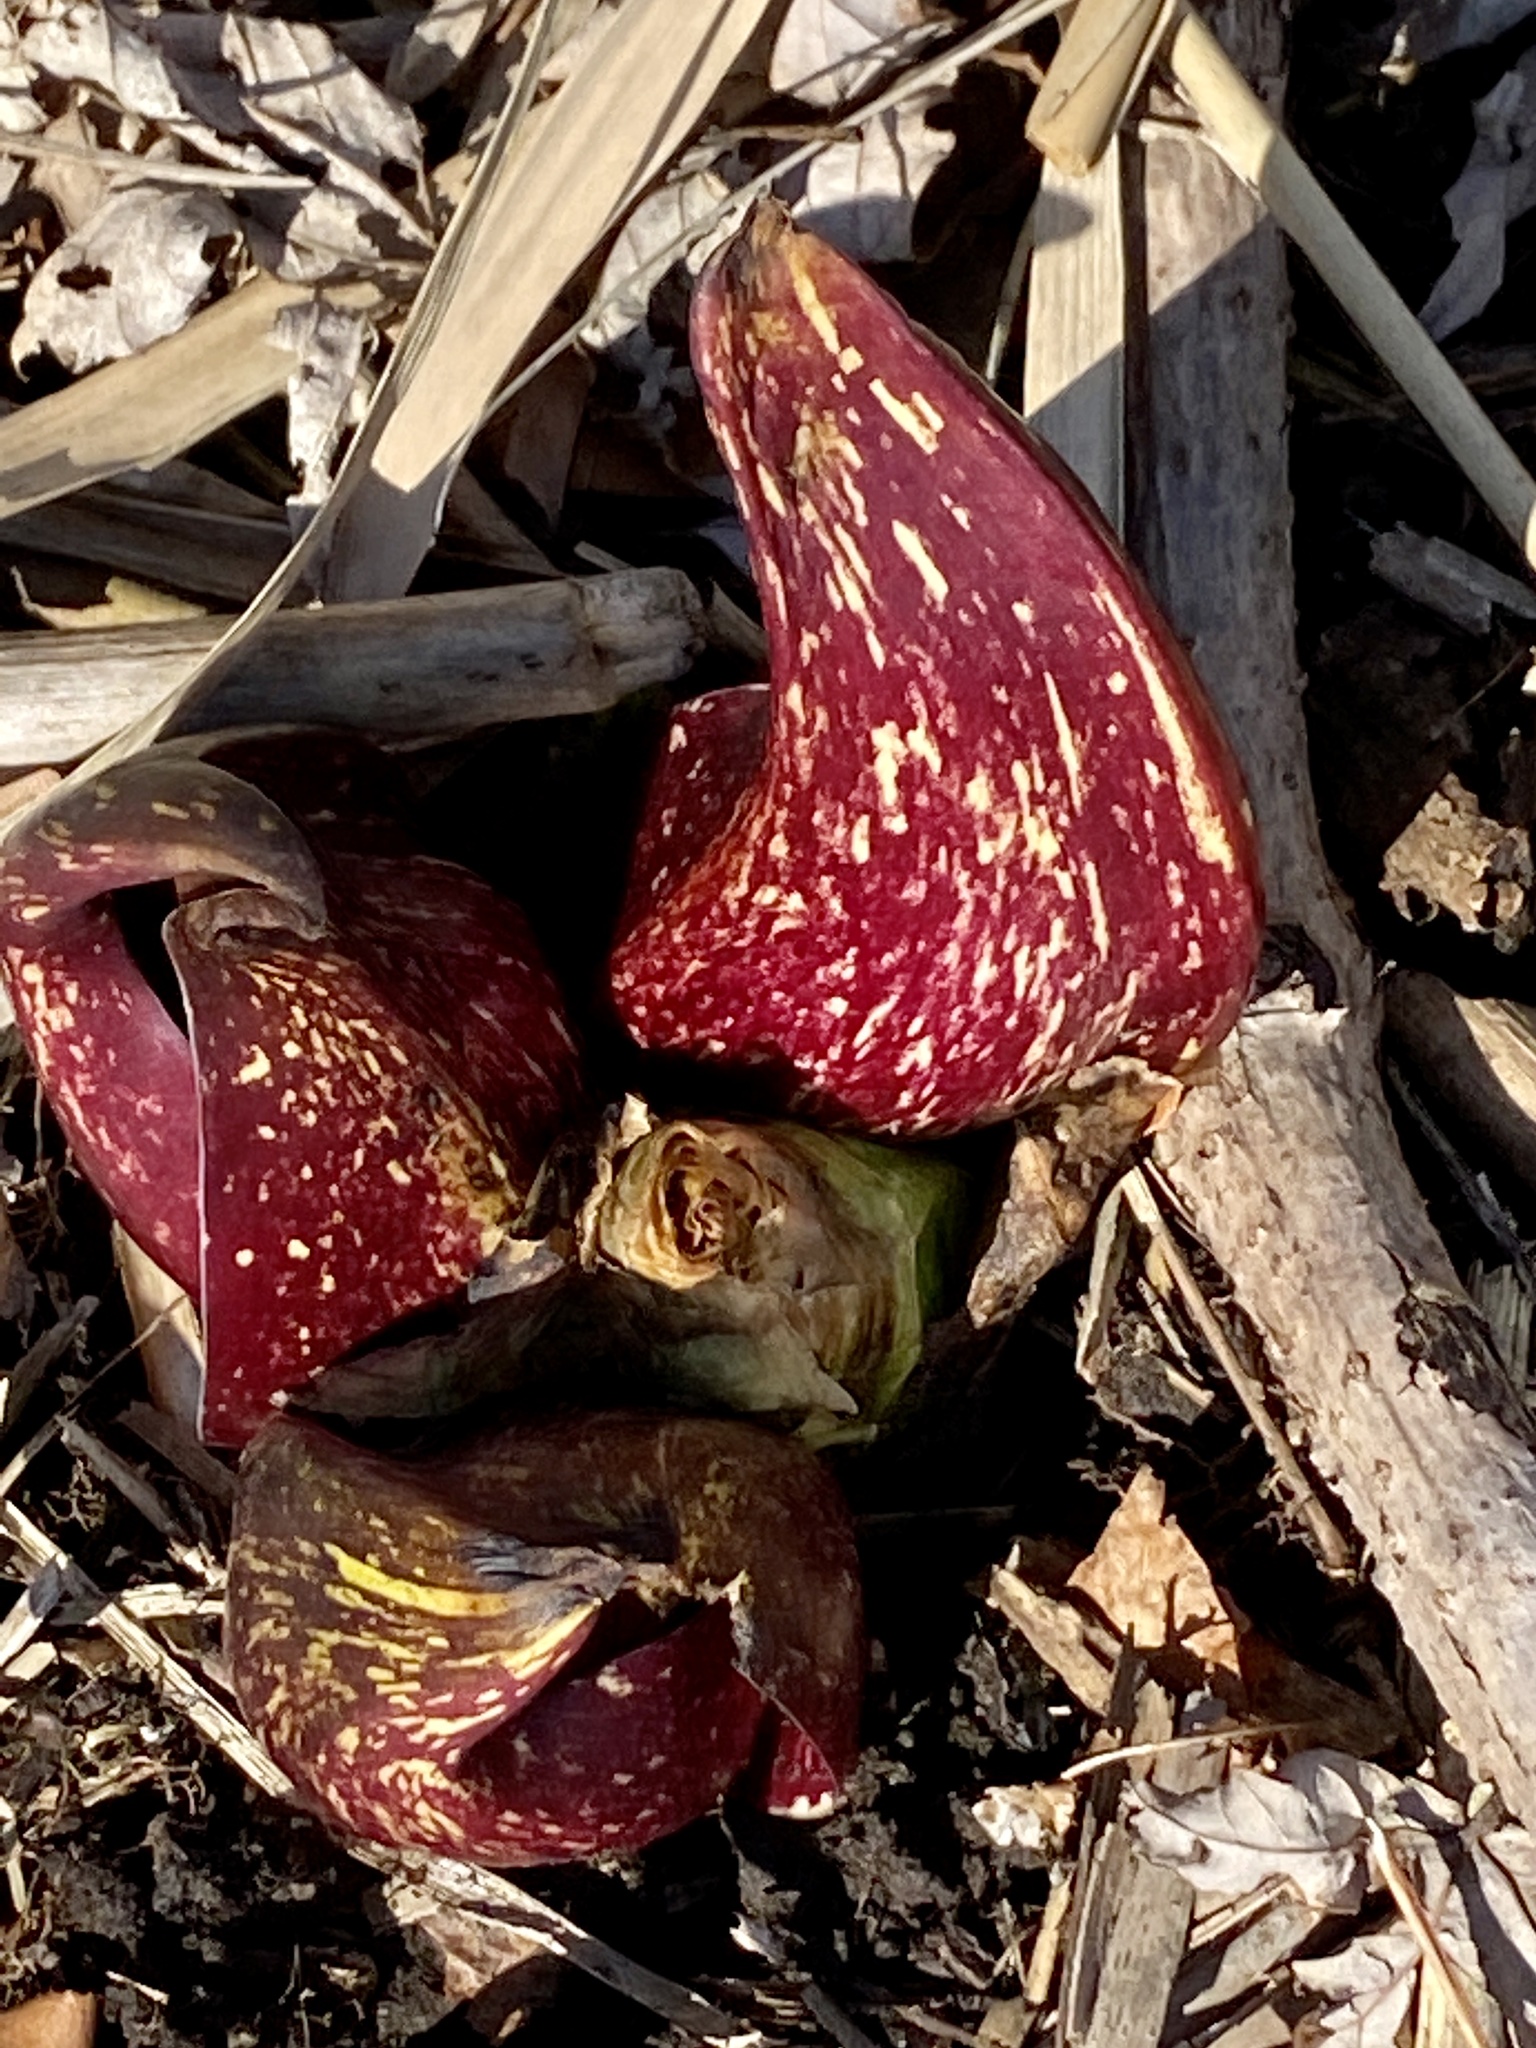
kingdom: Plantae
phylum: Tracheophyta
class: Liliopsida
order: Alismatales
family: Araceae
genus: Symplocarpus
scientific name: Symplocarpus foetidus
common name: Eastern skunk cabbage
